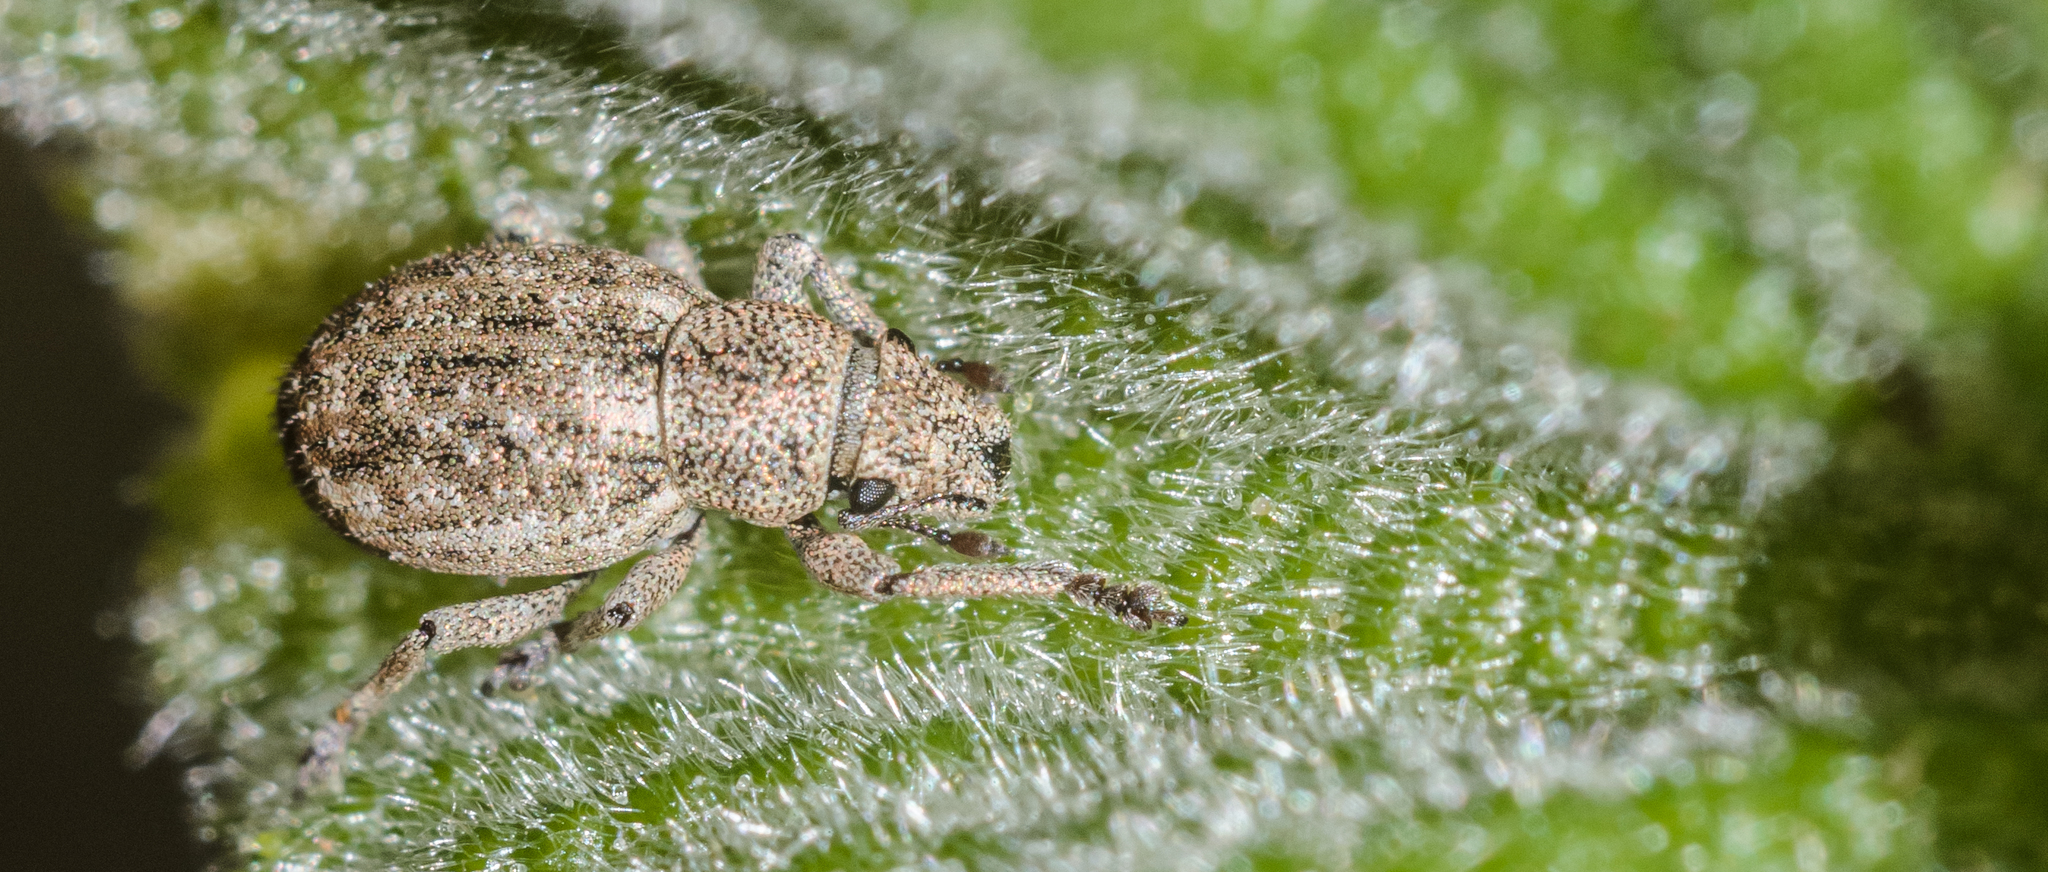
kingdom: Animalia
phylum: Arthropoda
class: Insecta
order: Coleoptera
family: Curculionidae
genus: Strophosoma
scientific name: Strophosoma capitatum
